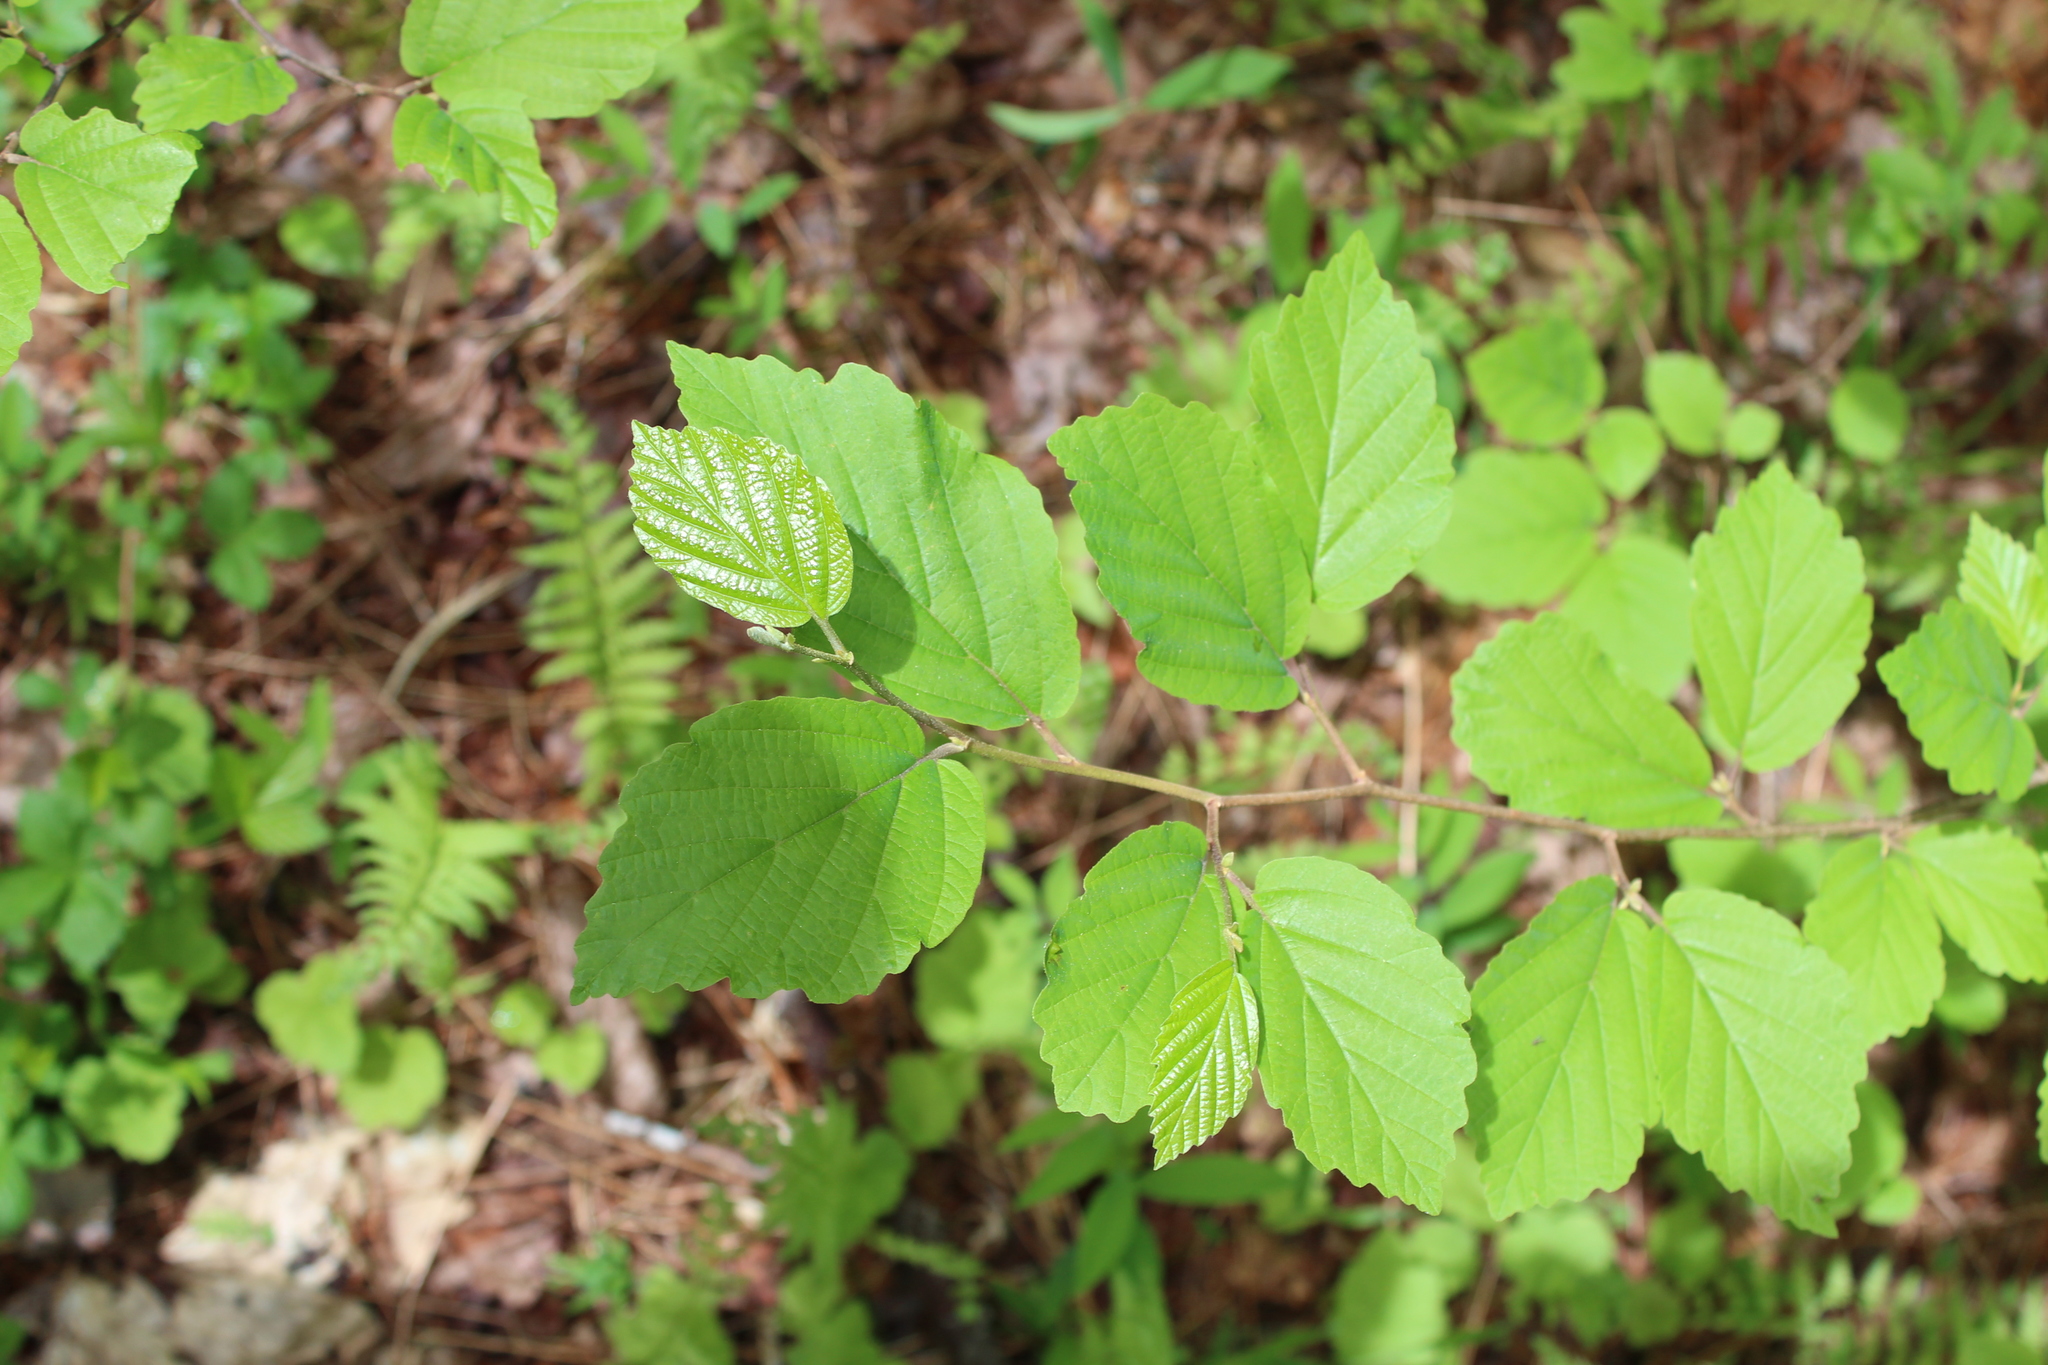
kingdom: Plantae
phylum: Tracheophyta
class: Magnoliopsida
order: Saxifragales
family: Hamamelidaceae
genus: Hamamelis
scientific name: Hamamelis virginiana
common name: Witch-hazel
